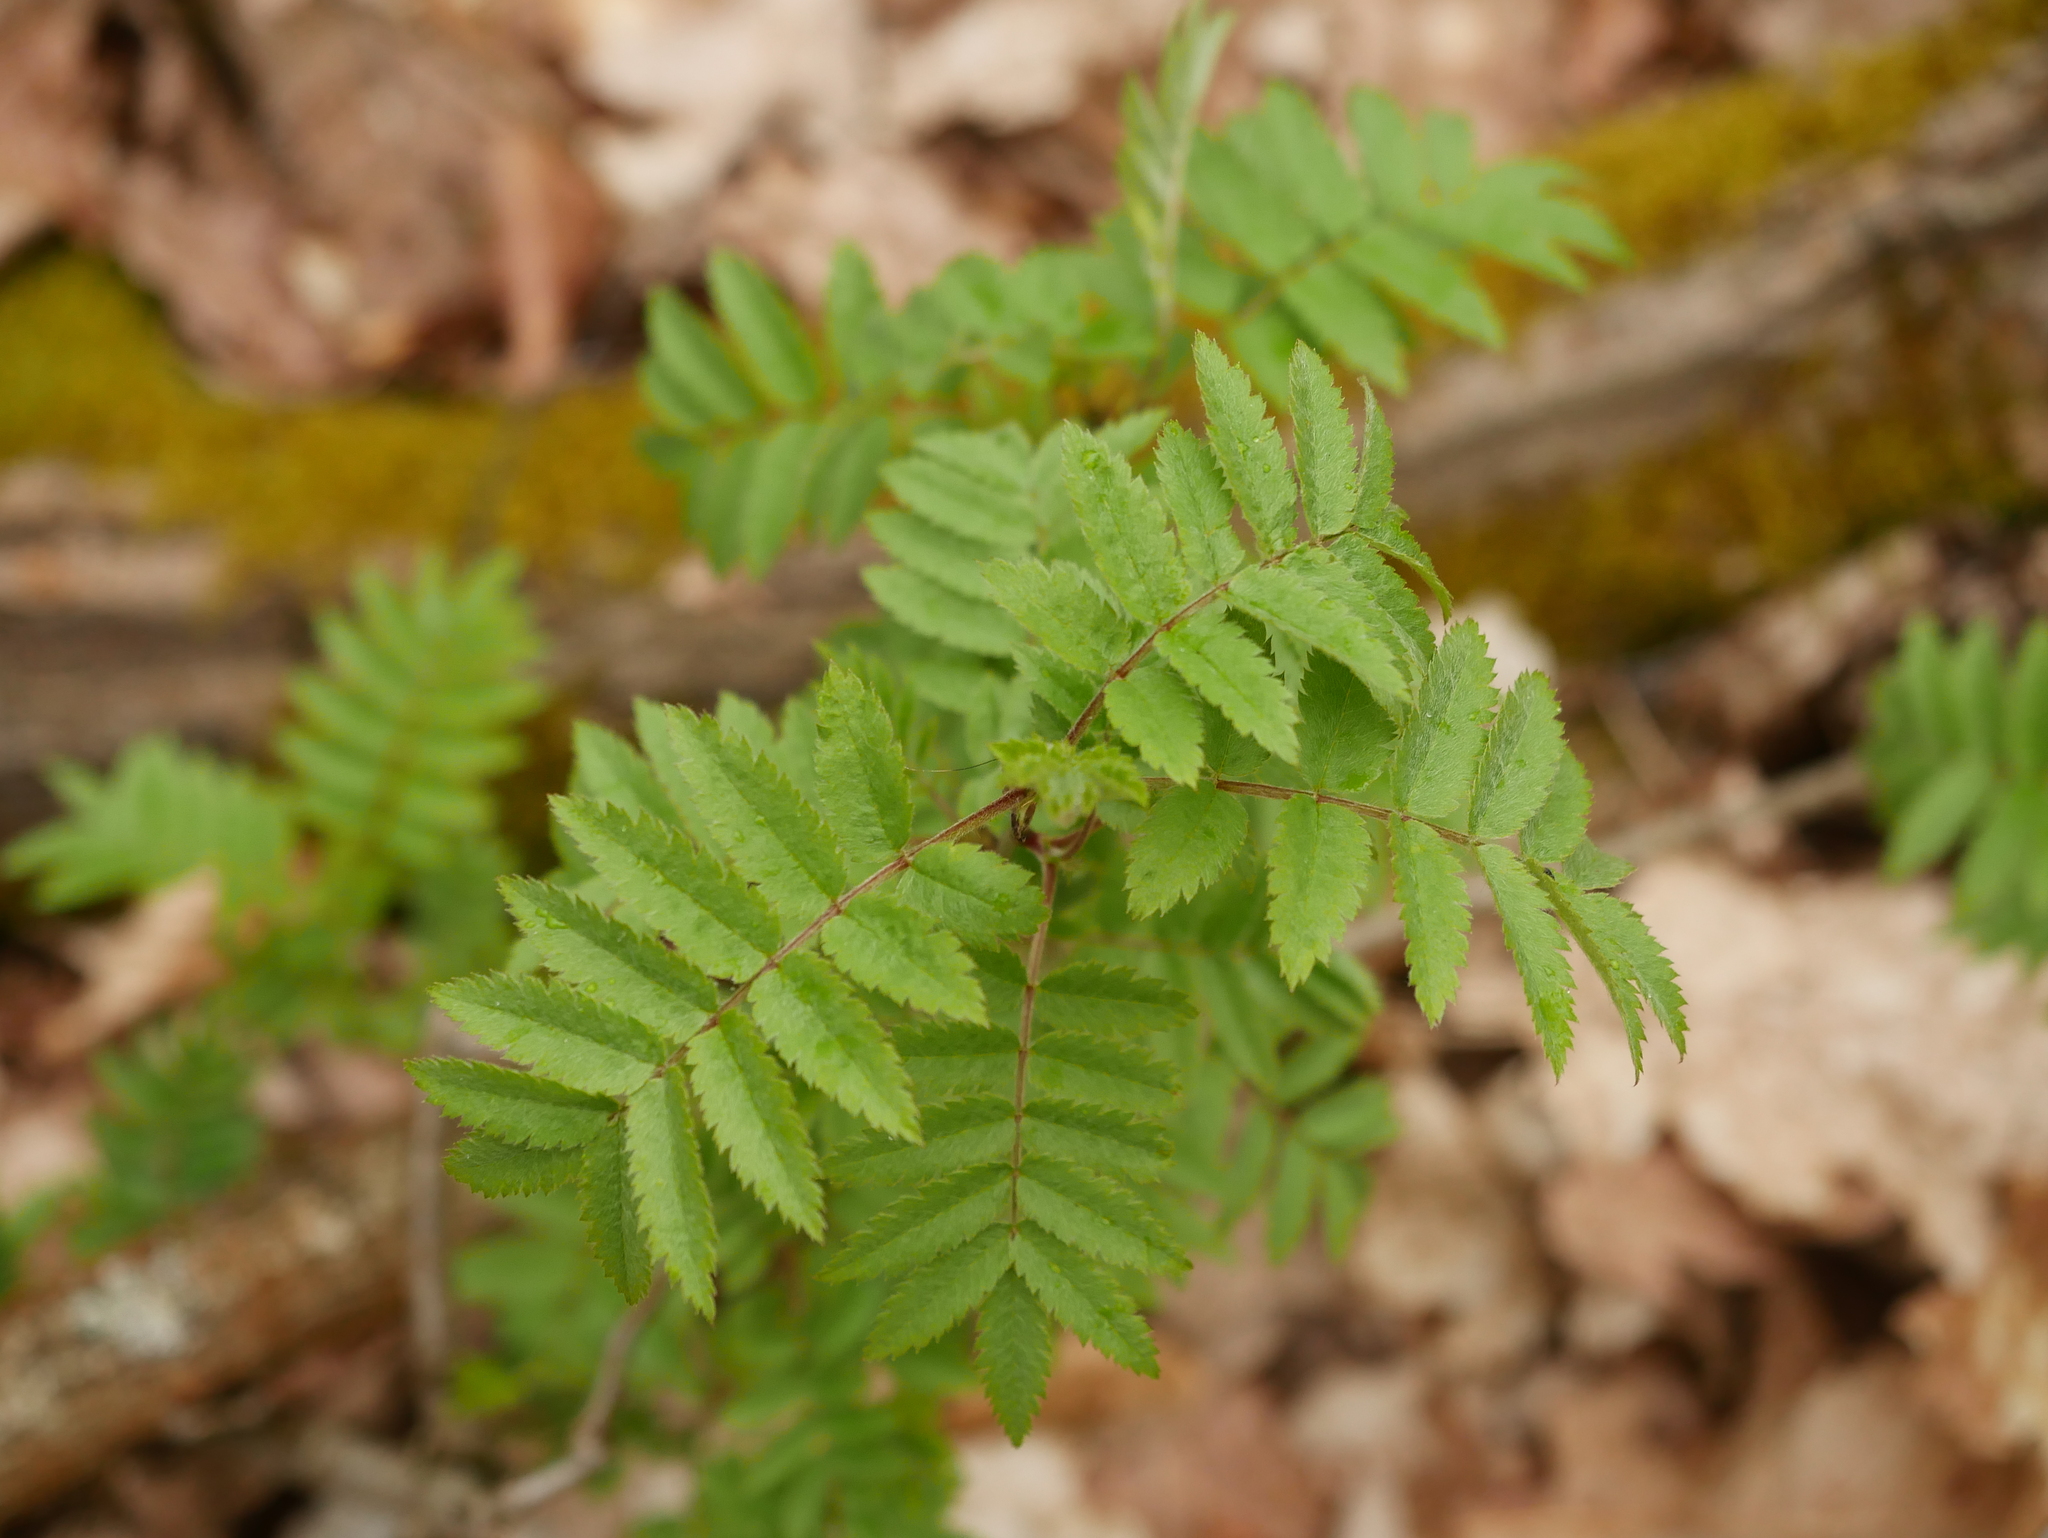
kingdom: Plantae
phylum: Tracheophyta
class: Magnoliopsida
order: Rosales
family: Rosaceae
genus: Sorbus
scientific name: Sorbus aucuparia
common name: Rowan
